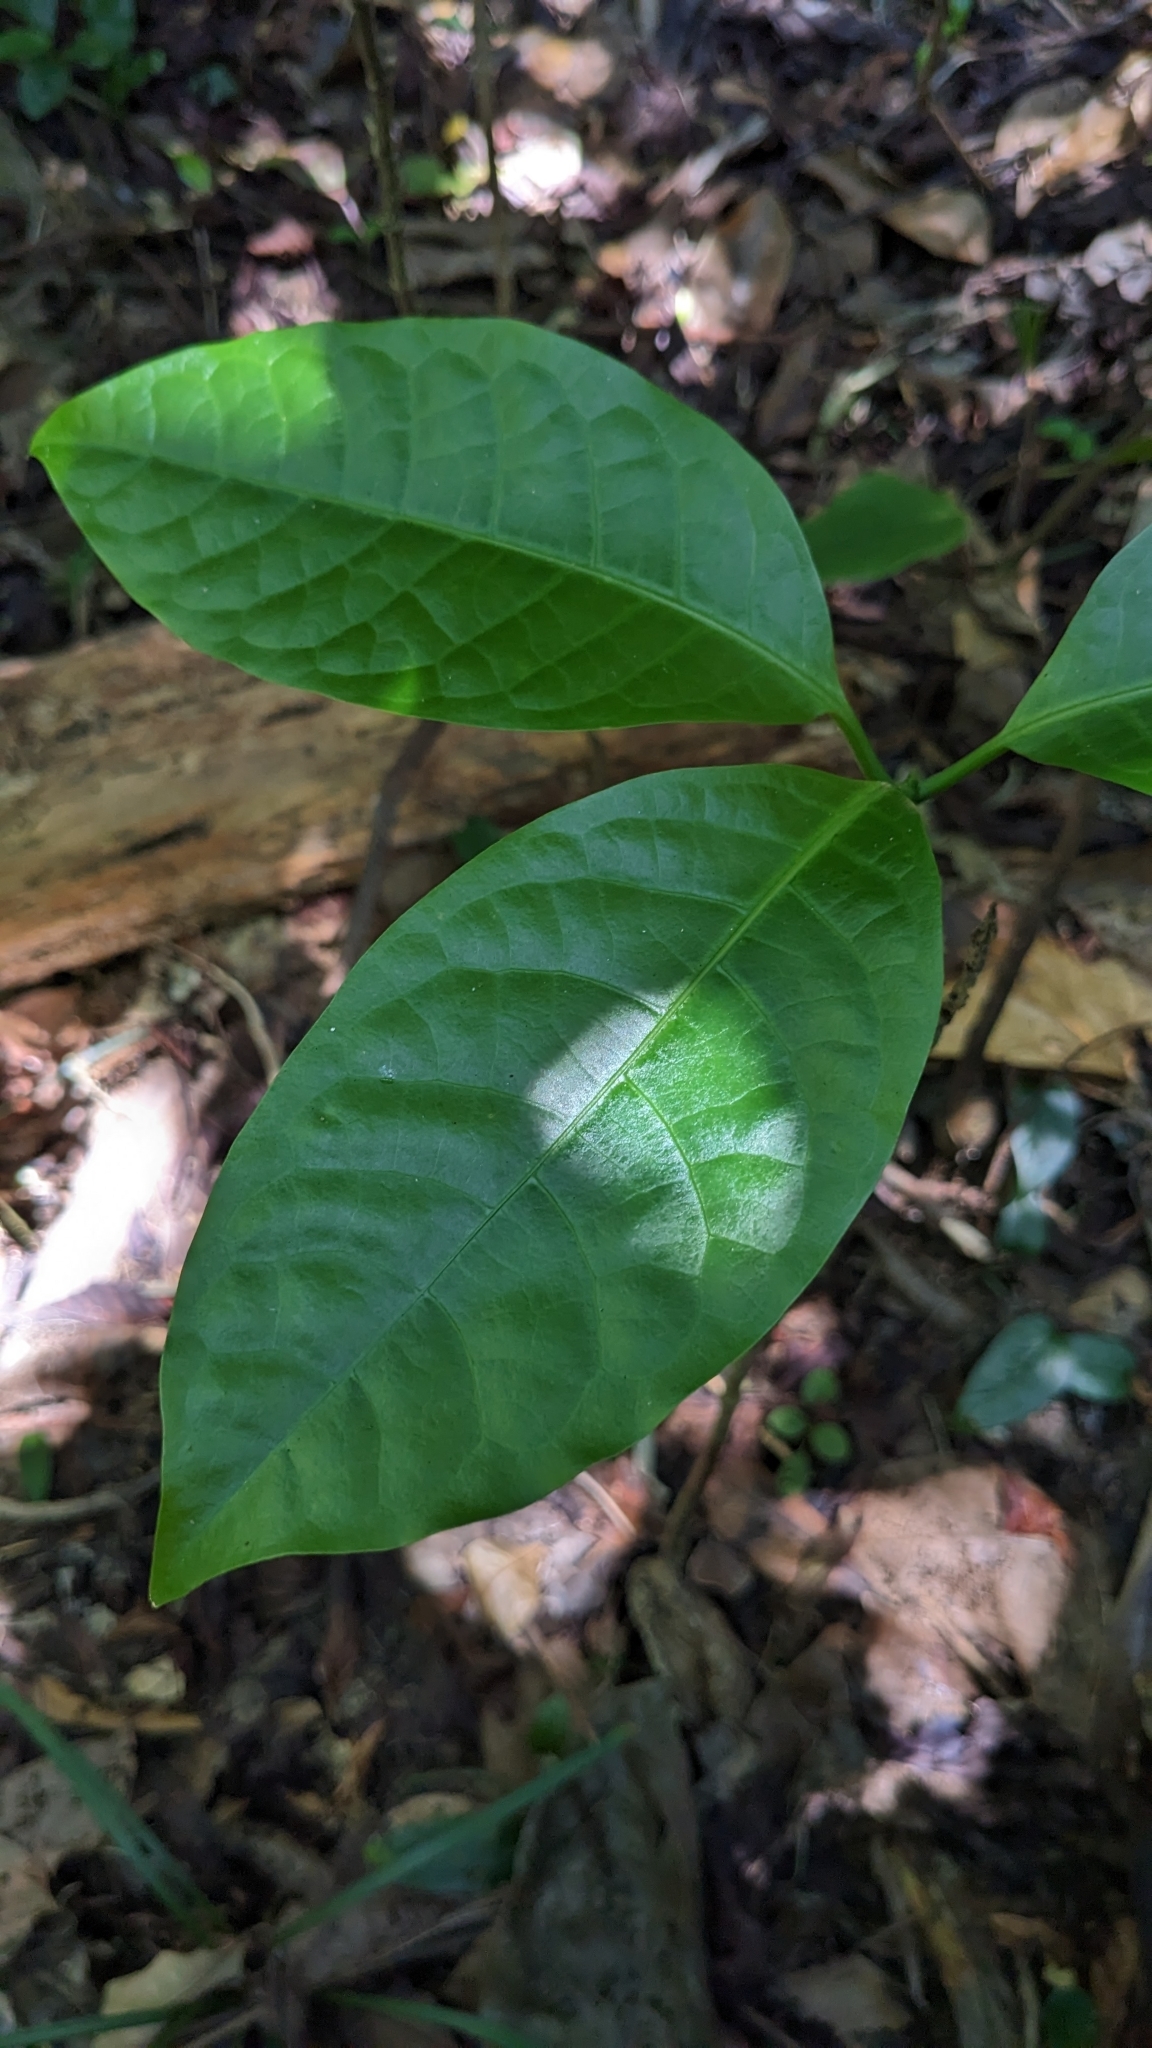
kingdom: Plantae
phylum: Tracheophyta
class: Magnoliopsida
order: Laurales
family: Lauraceae
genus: Dehaasia
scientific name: Dehaasia incrassata
